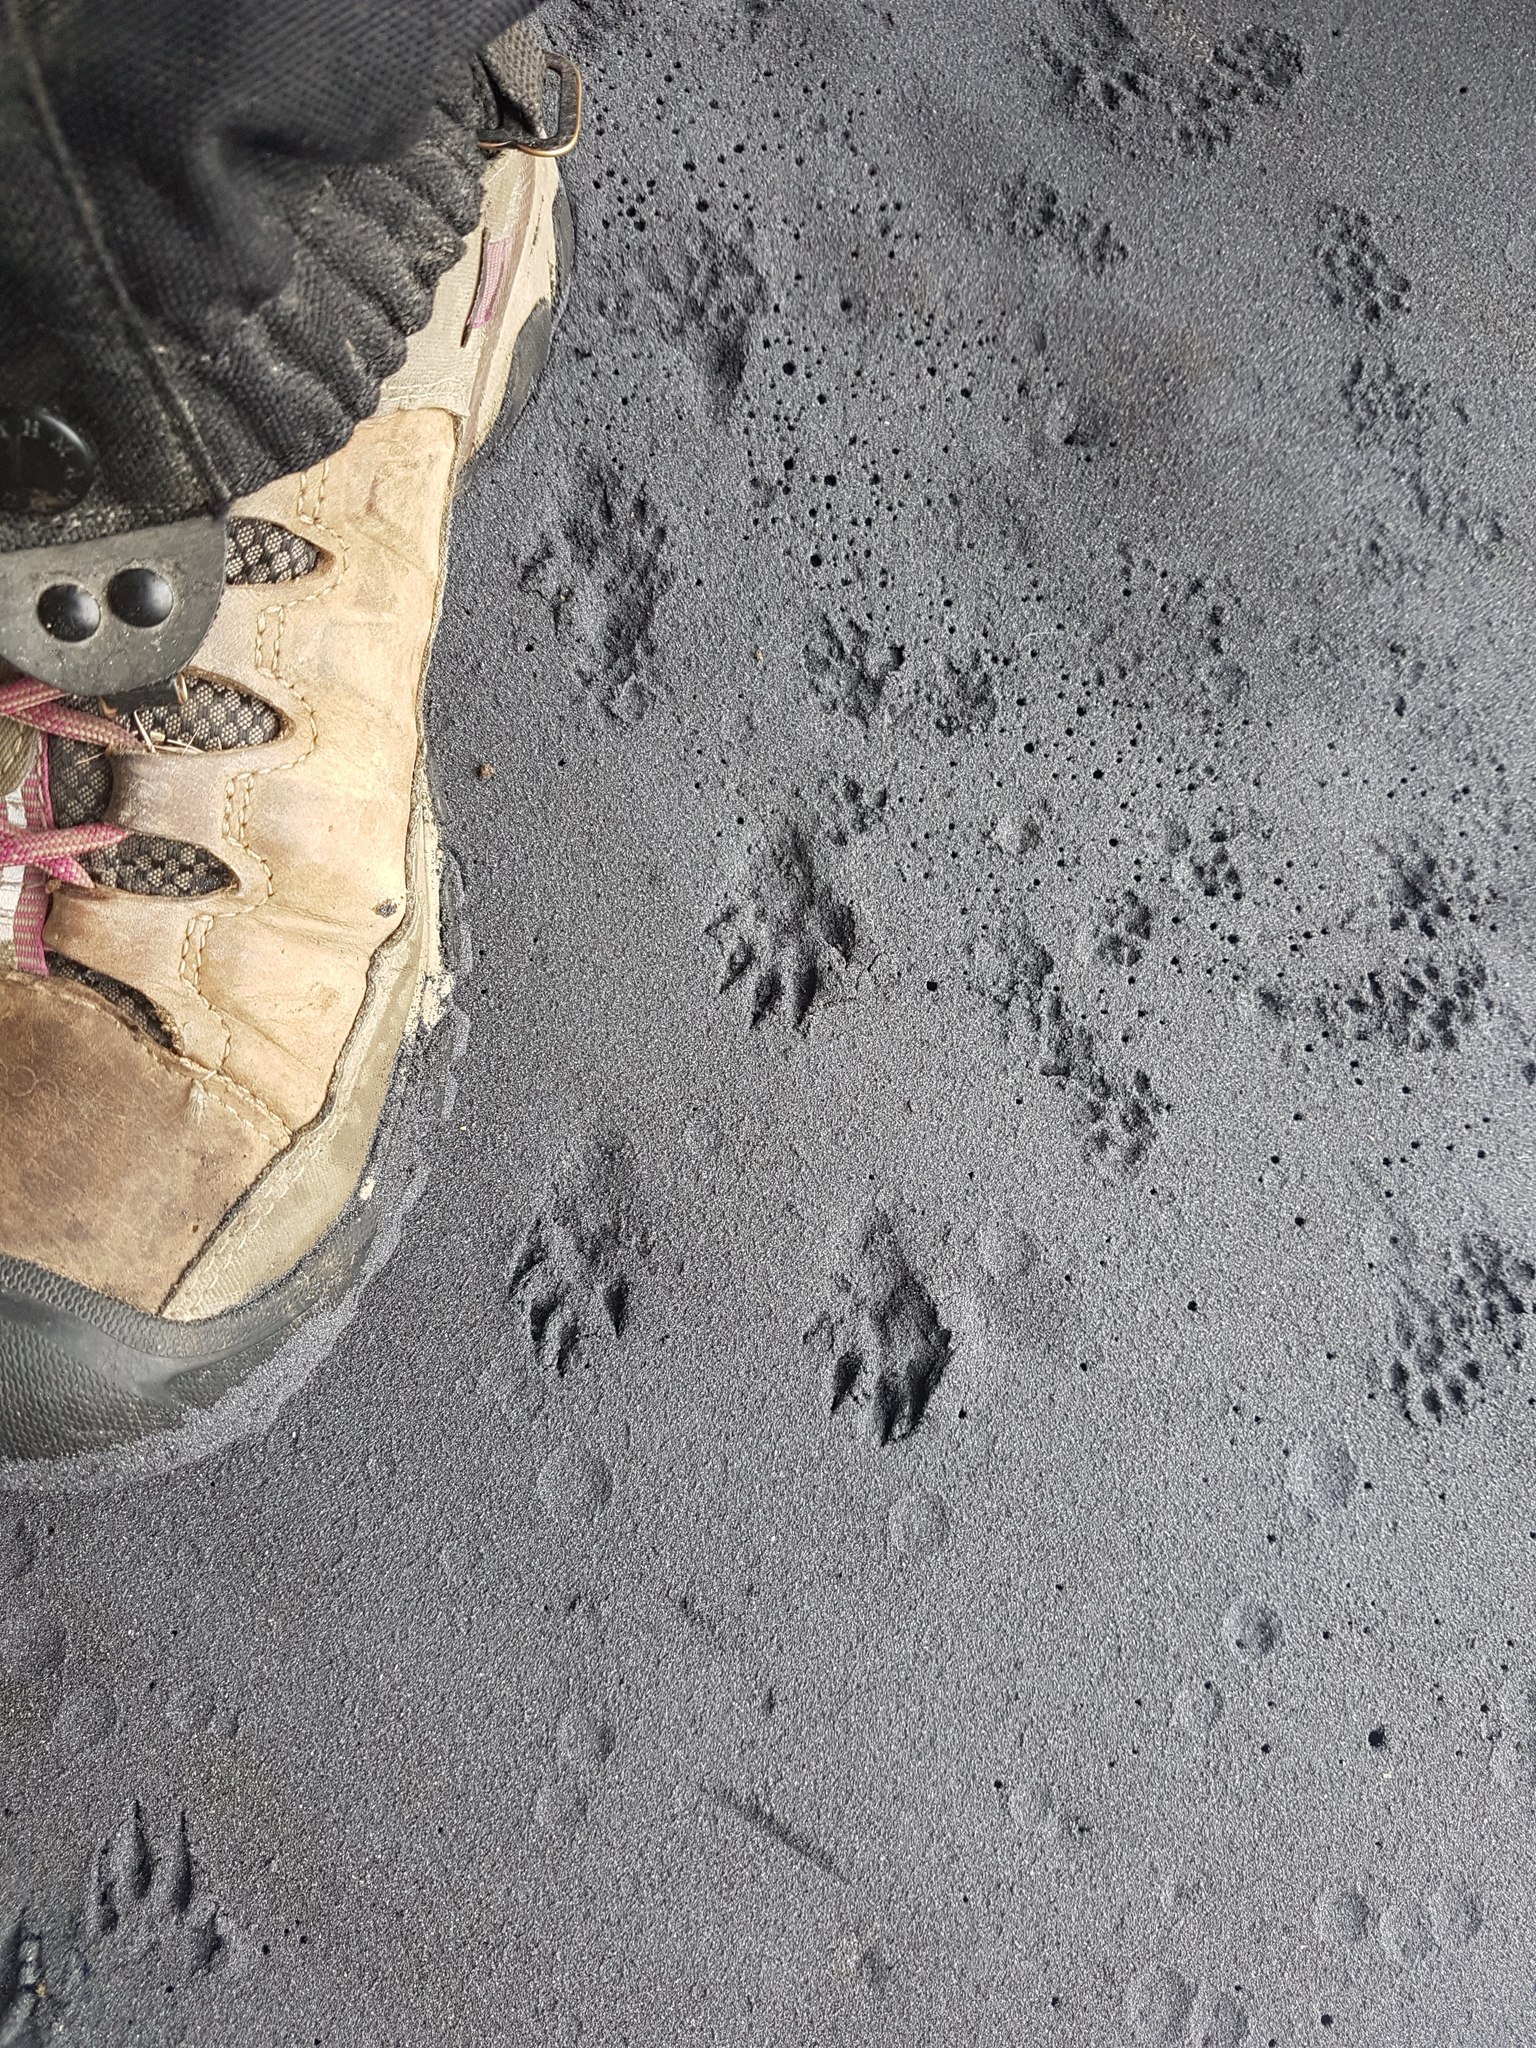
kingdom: Animalia
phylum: Chordata
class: Mammalia
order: Carnivora
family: Mustelidae
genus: Mustela
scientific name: Mustela erminea
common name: Stoat
